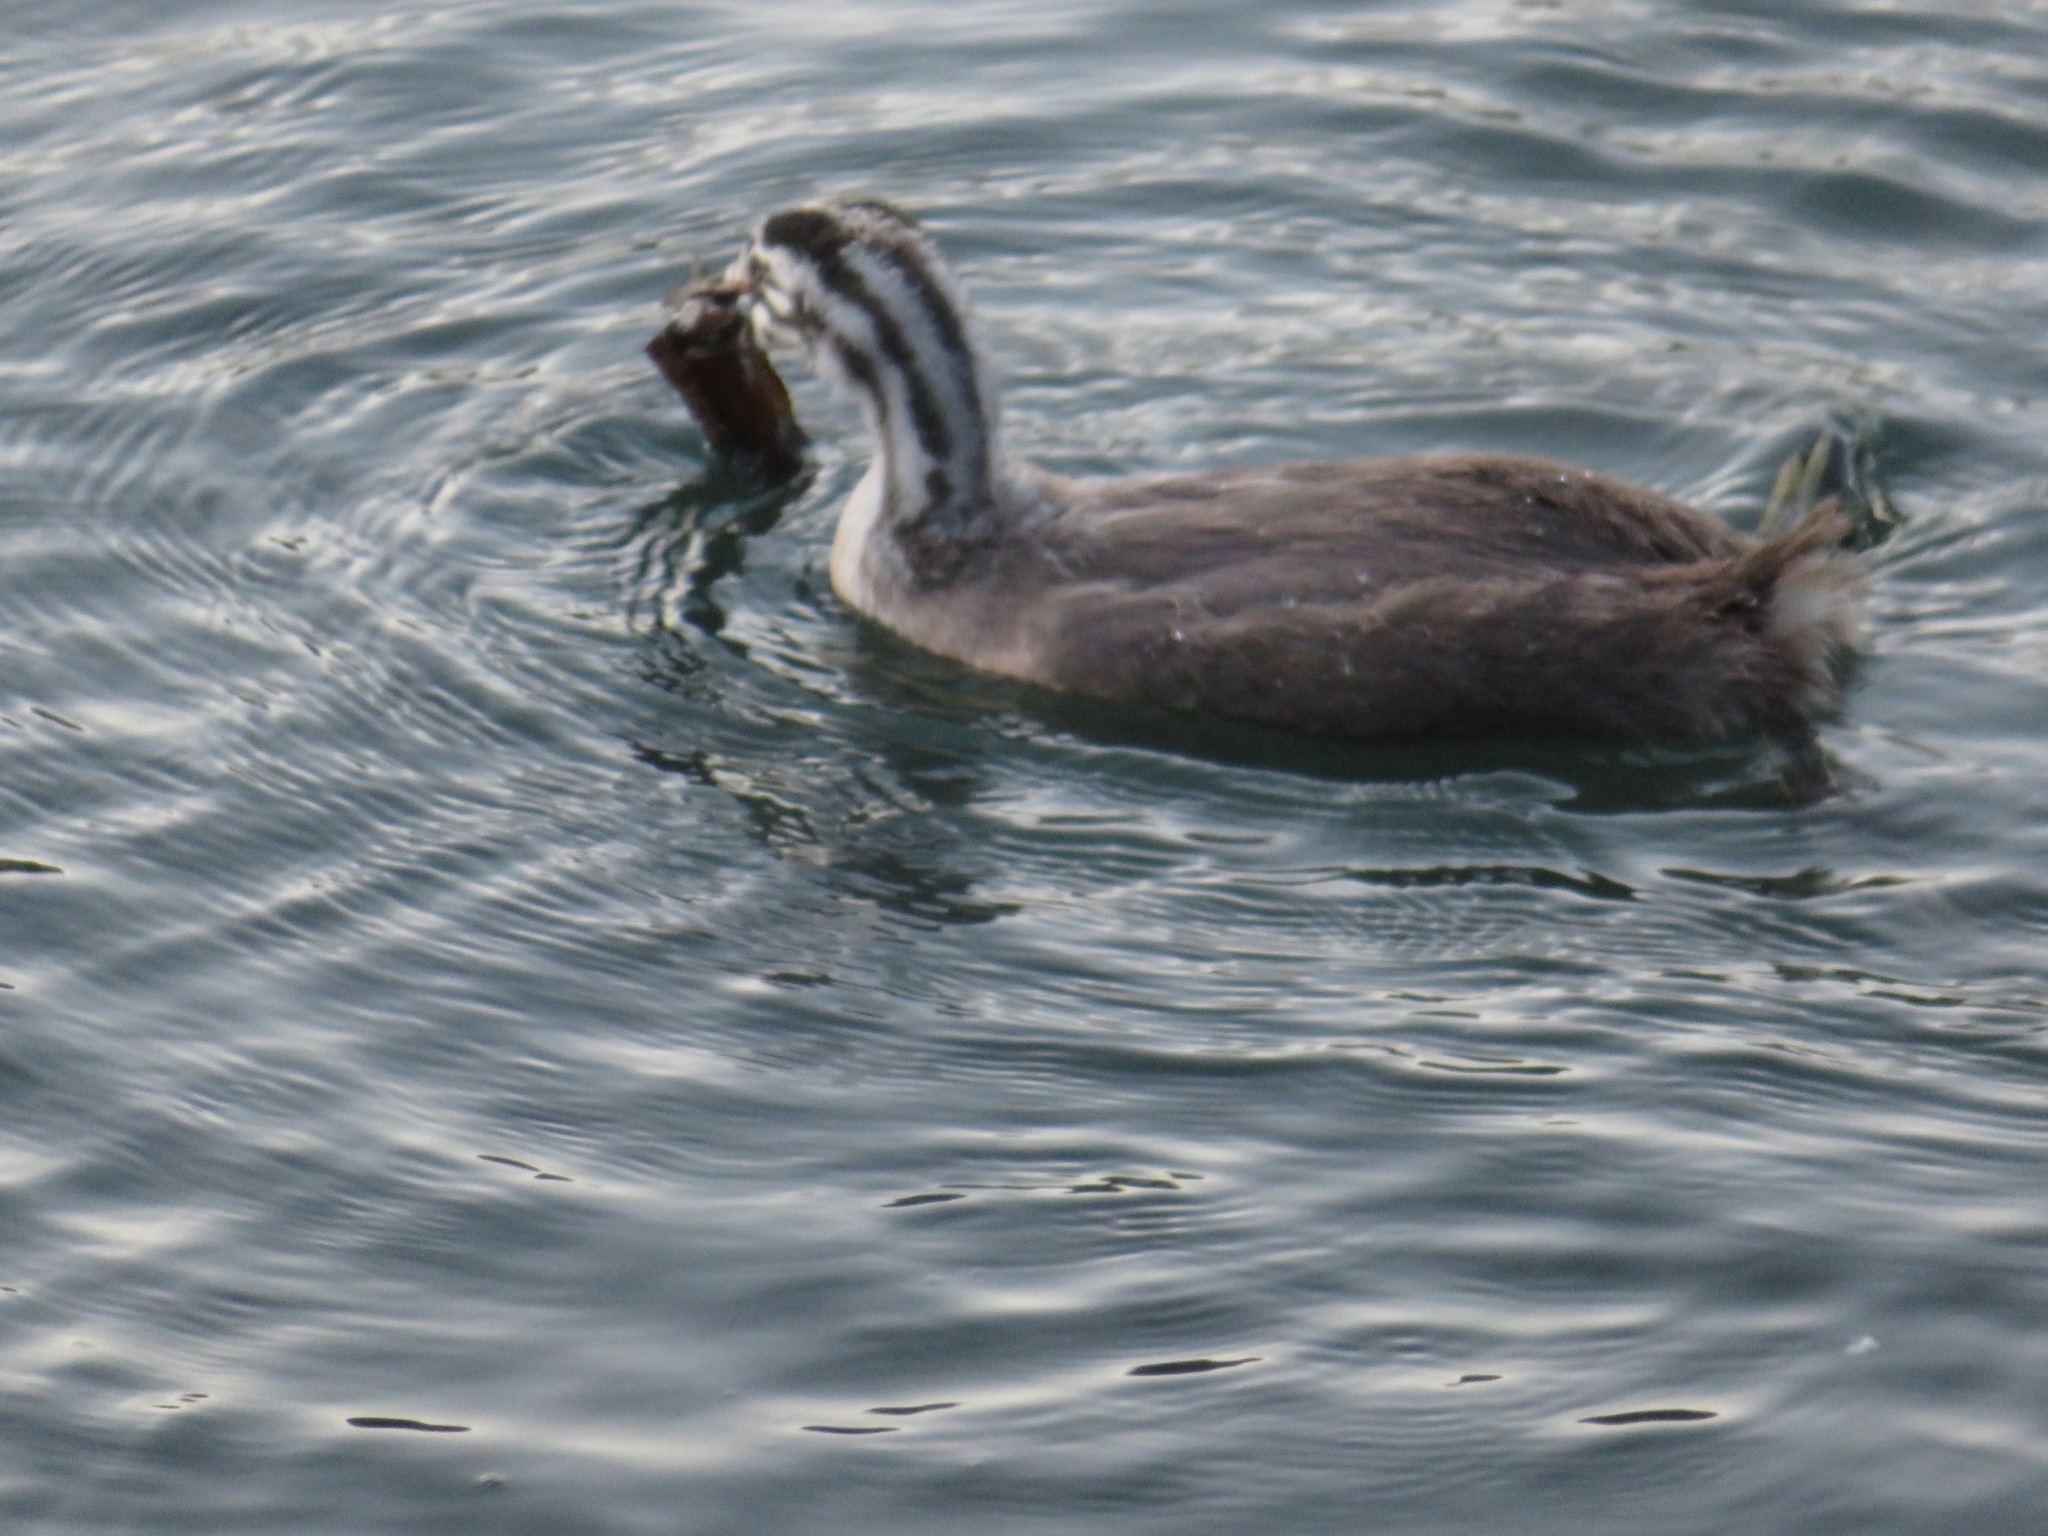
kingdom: Animalia
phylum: Chordata
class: Aves
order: Podicipediformes
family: Podicipedidae
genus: Podiceps
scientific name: Podiceps cristatus
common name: Great crested grebe
